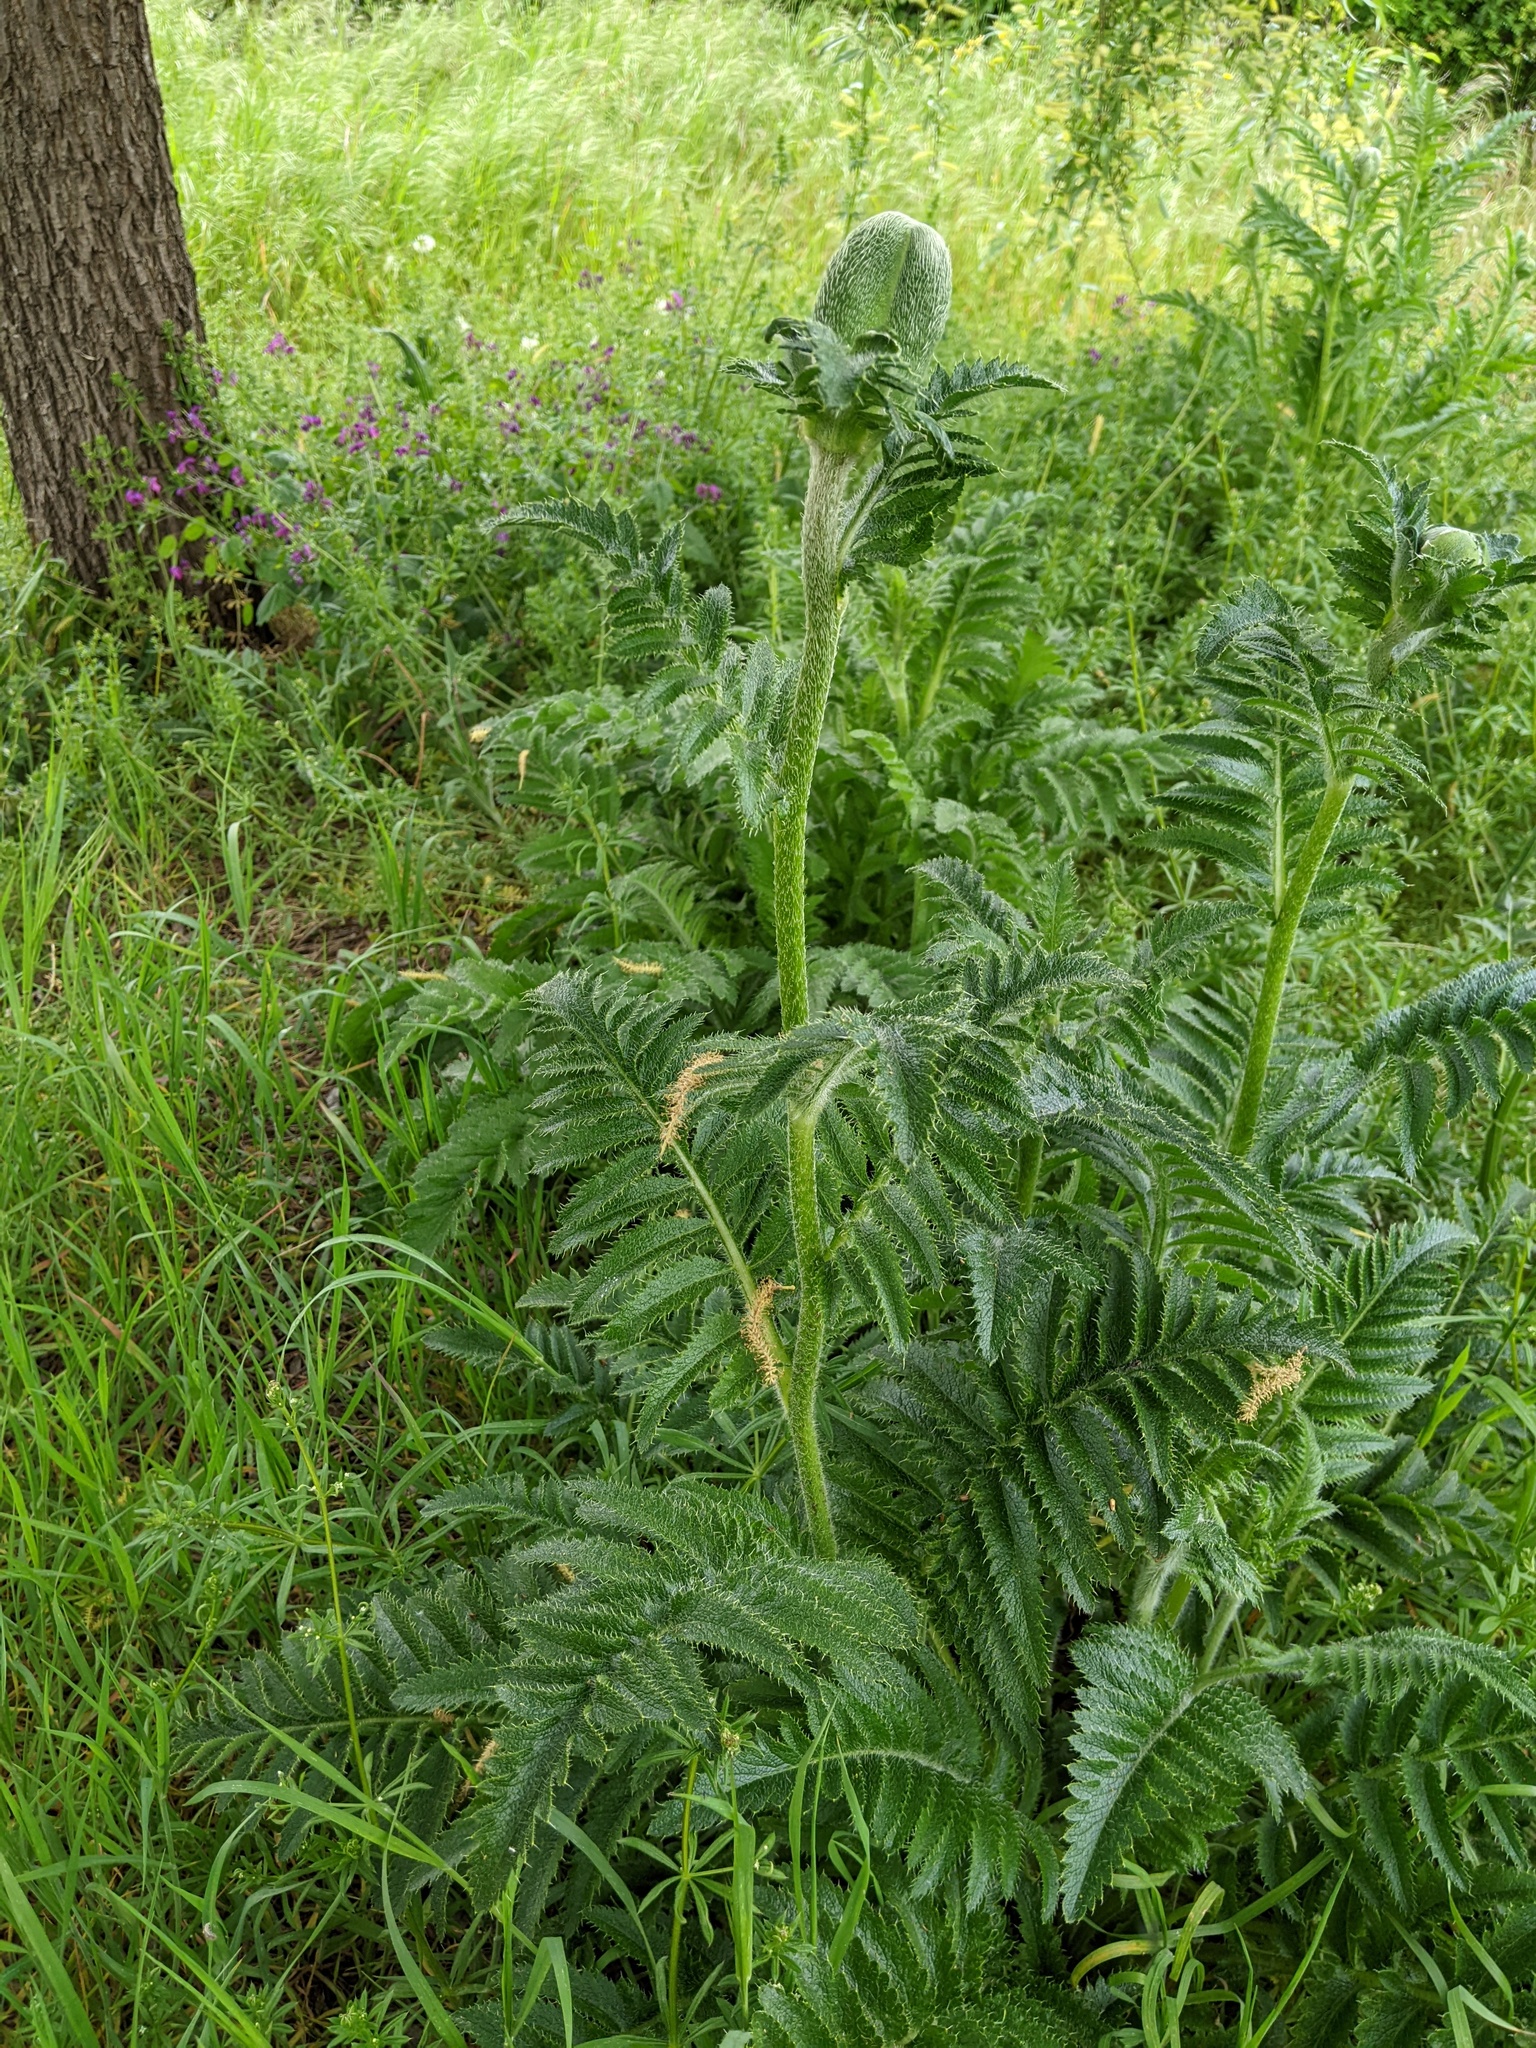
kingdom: Plantae
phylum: Tracheophyta
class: Magnoliopsida
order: Ranunculales
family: Papaveraceae
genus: Papaver
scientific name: Papaver orientale
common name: Oriental poppy
